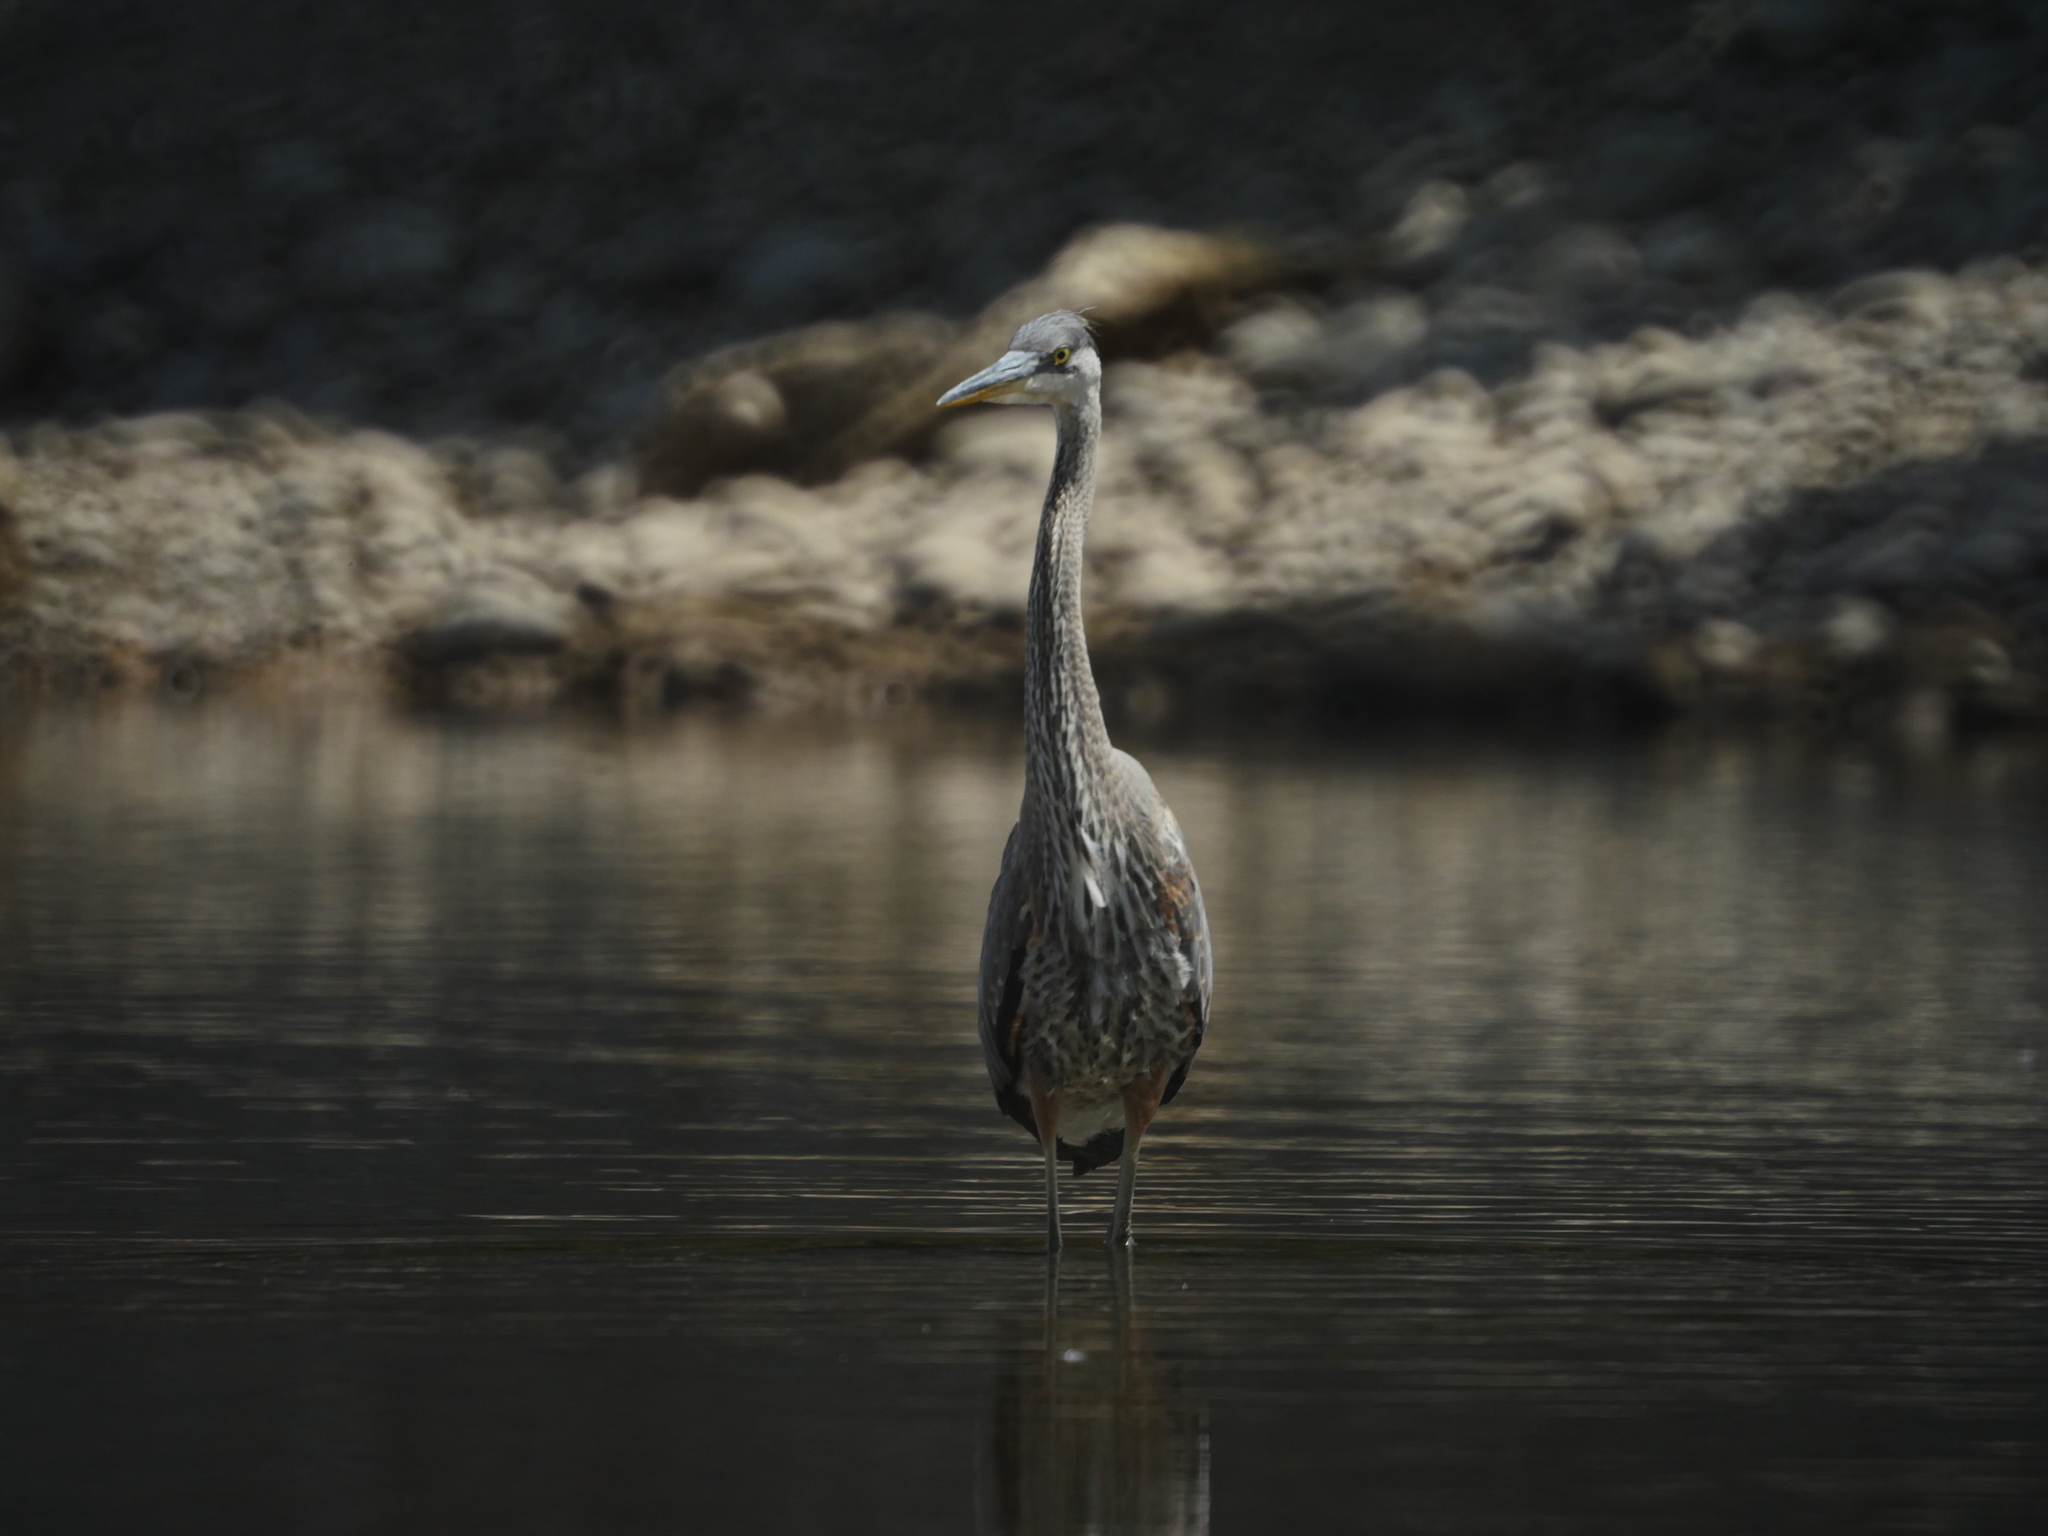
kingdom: Animalia
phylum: Chordata
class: Aves
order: Pelecaniformes
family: Ardeidae
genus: Ardea
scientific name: Ardea herodias
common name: Great blue heron
